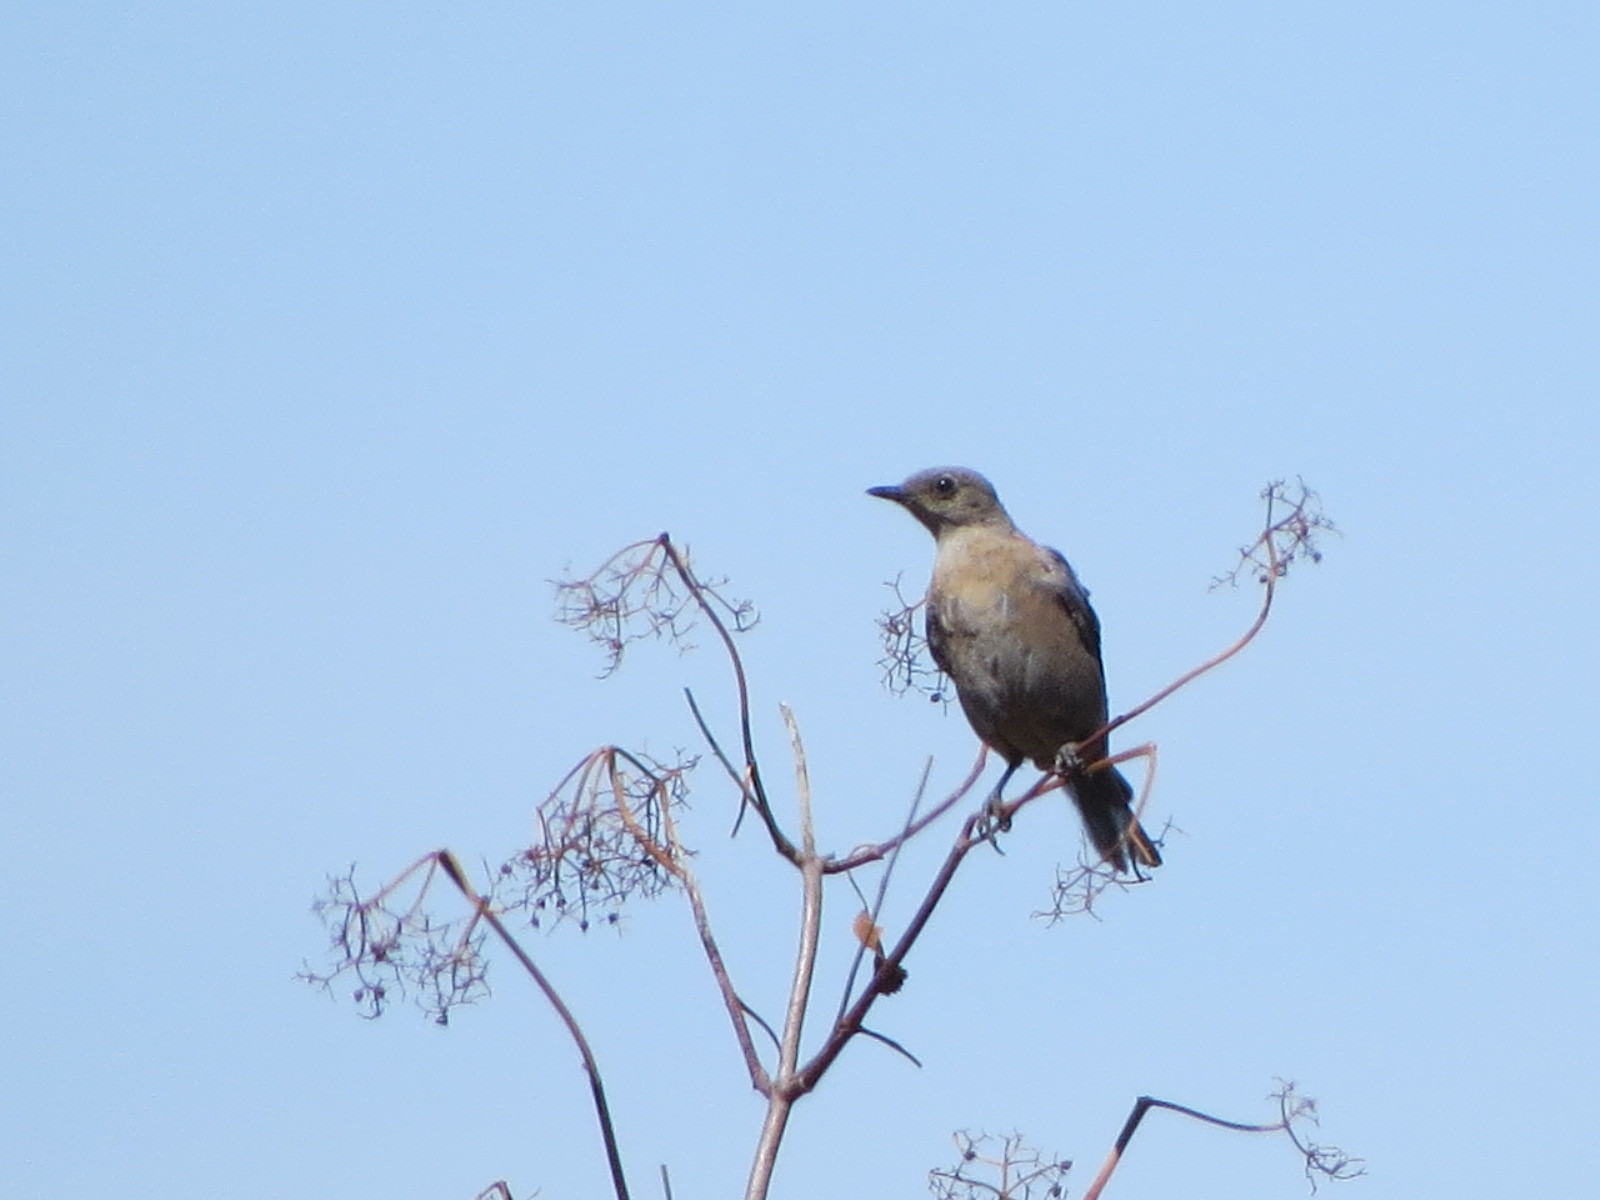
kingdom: Animalia
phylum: Chordata
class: Aves
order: Passeriformes
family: Turdidae
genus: Sialia
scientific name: Sialia mexicana
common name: Western bluebird
